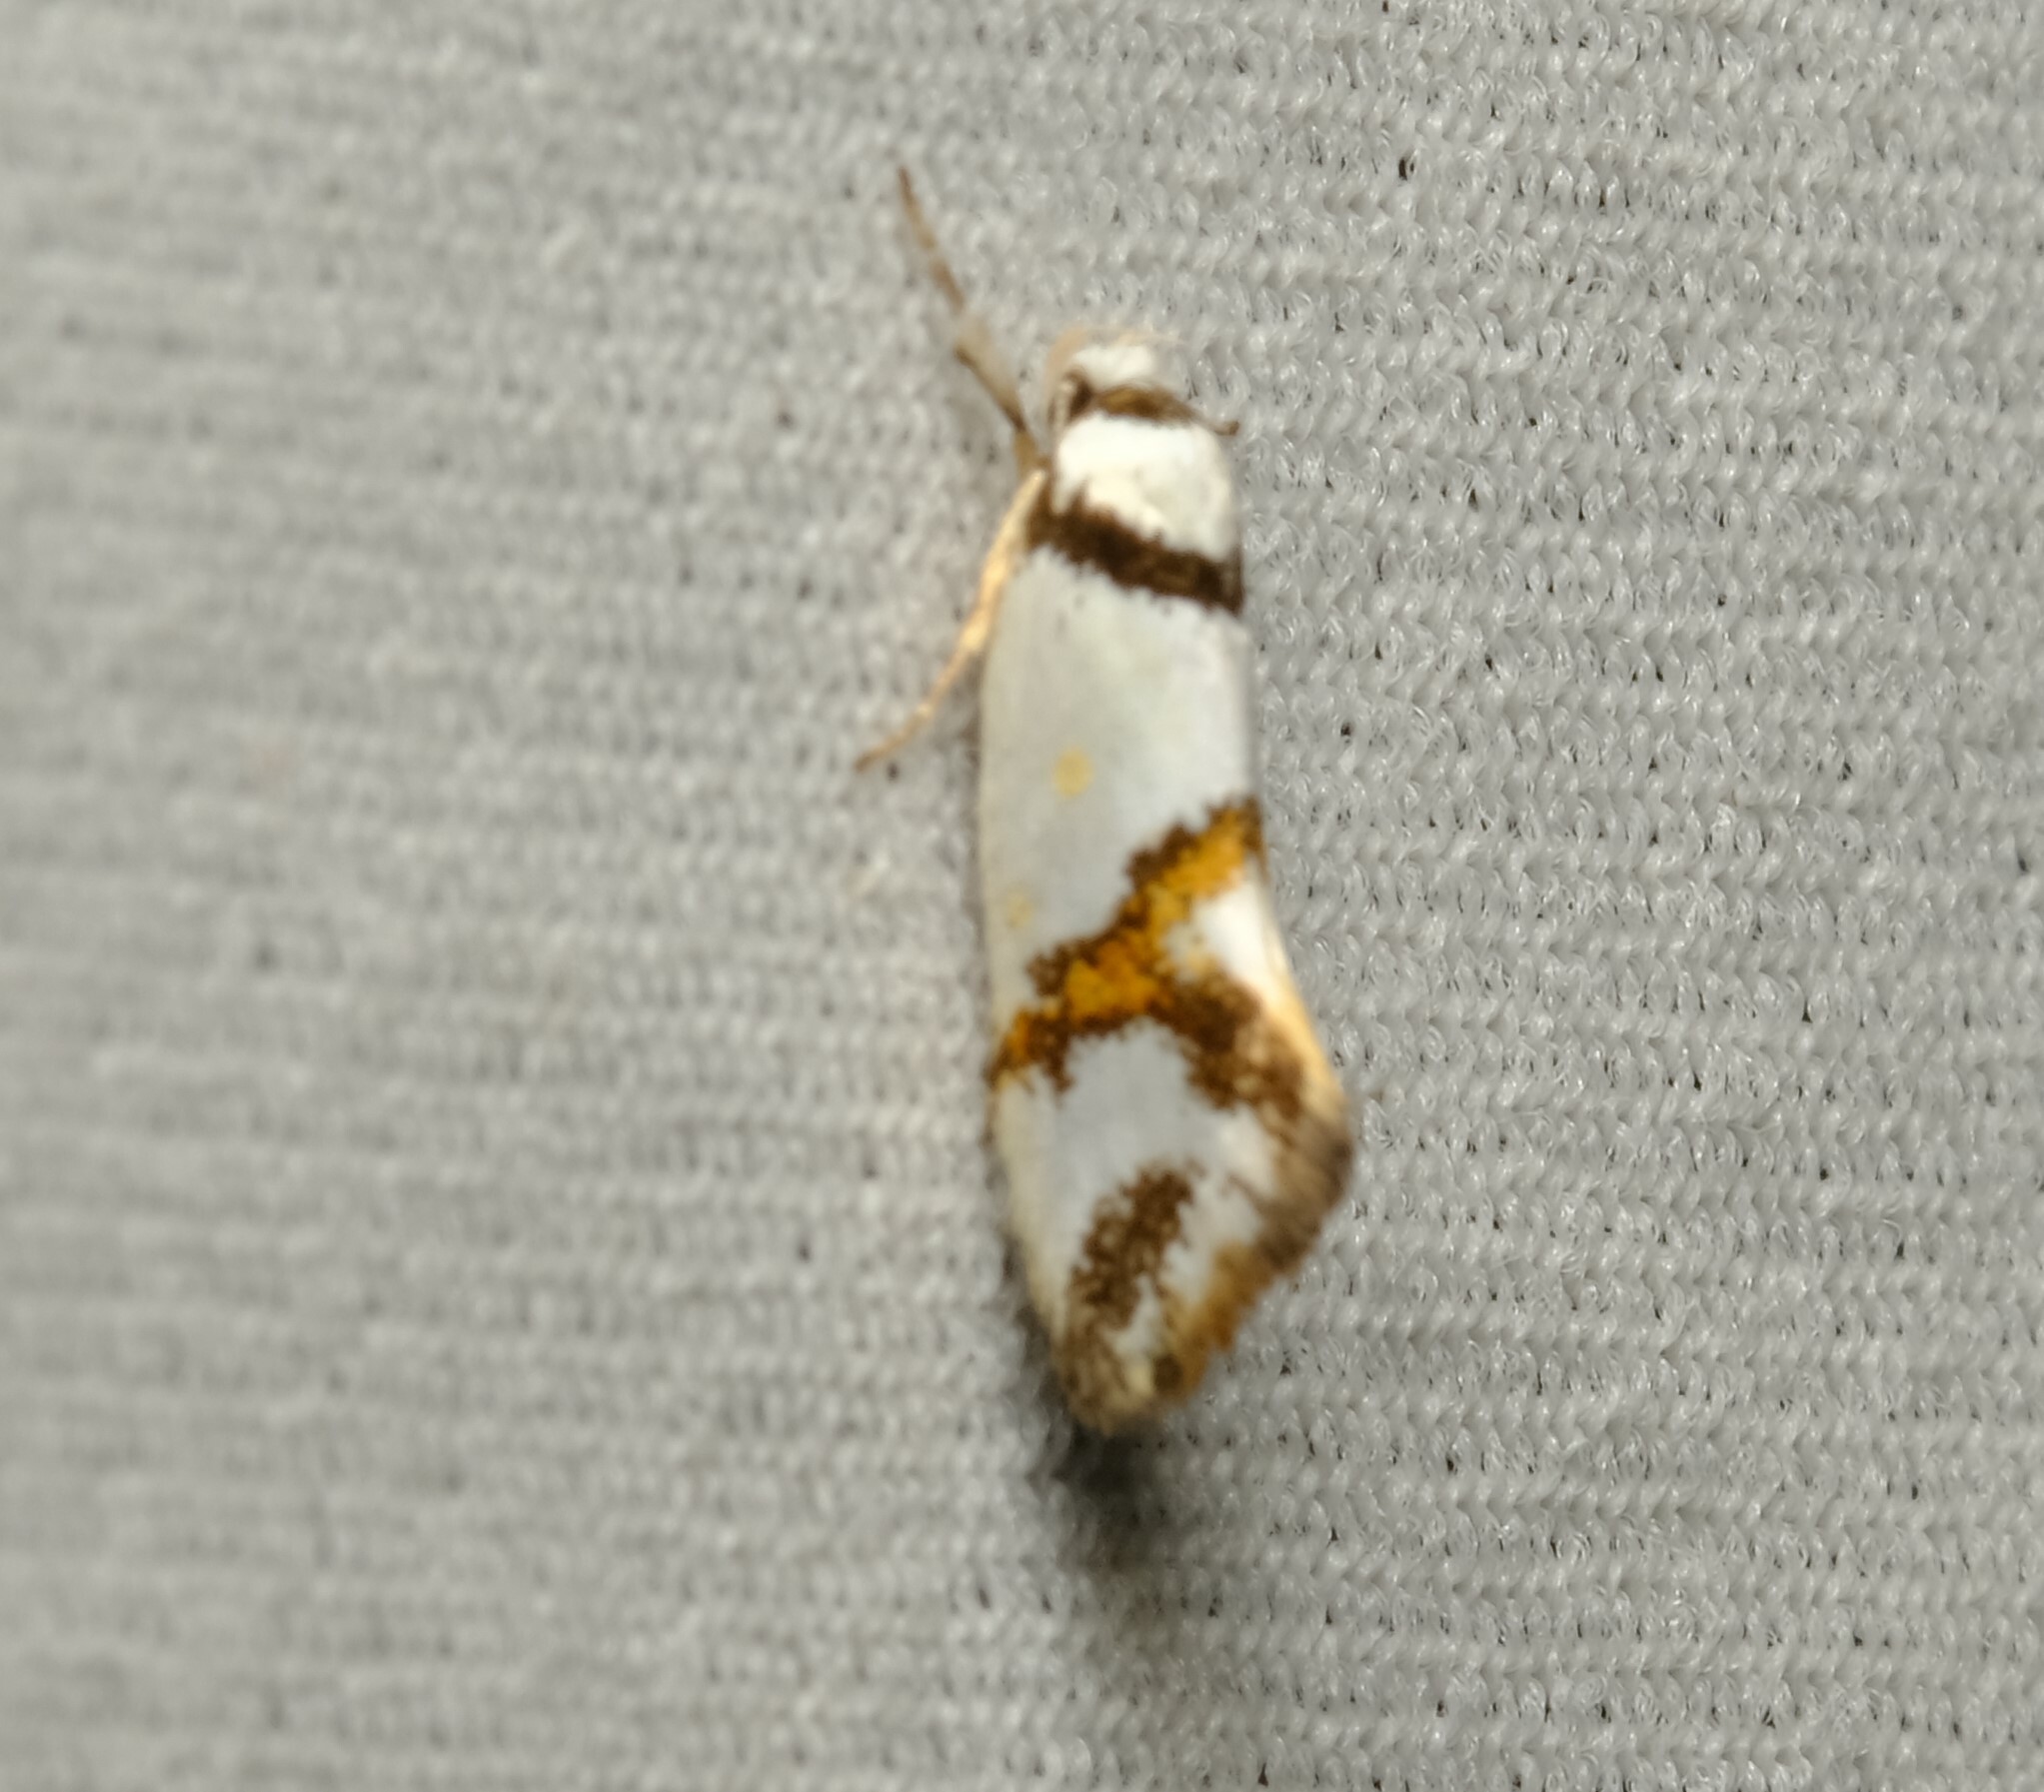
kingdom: Animalia
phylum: Arthropoda
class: Insecta
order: Lepidoptera
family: Oecophoridae
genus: Lepidotarsa
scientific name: Lepidotarsa habrodelta
